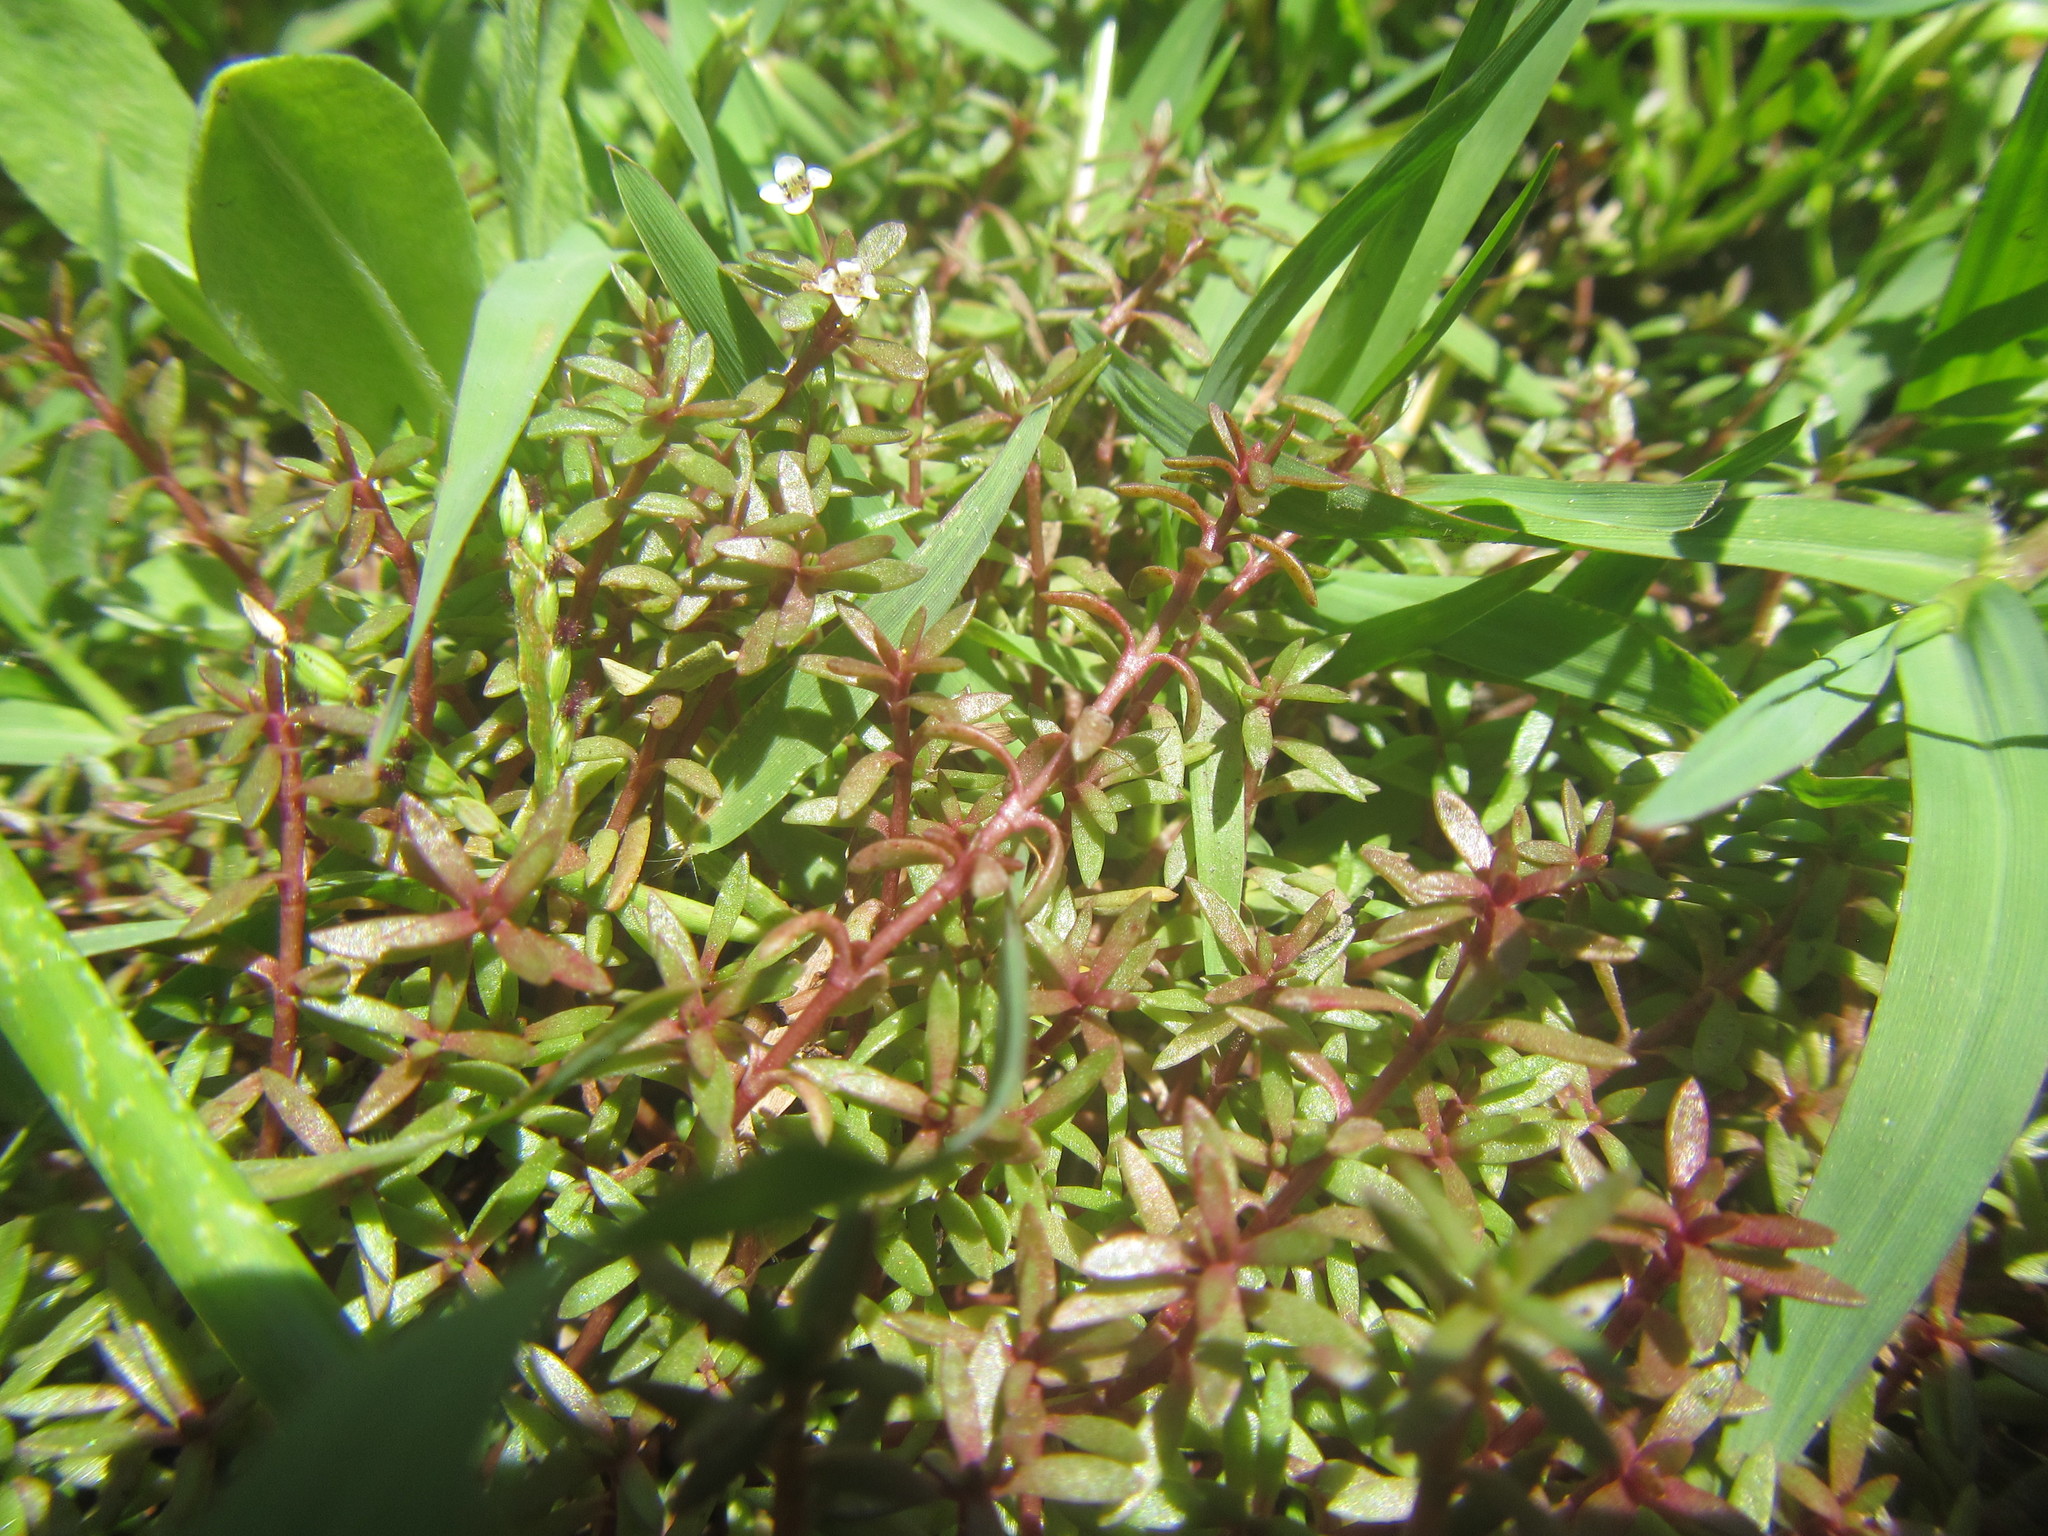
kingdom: Plantae
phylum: Tracheophyta
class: Magnoliopsida
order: Saxifragales
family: Crassulaceae
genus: Crassula
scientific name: Crassula natans
